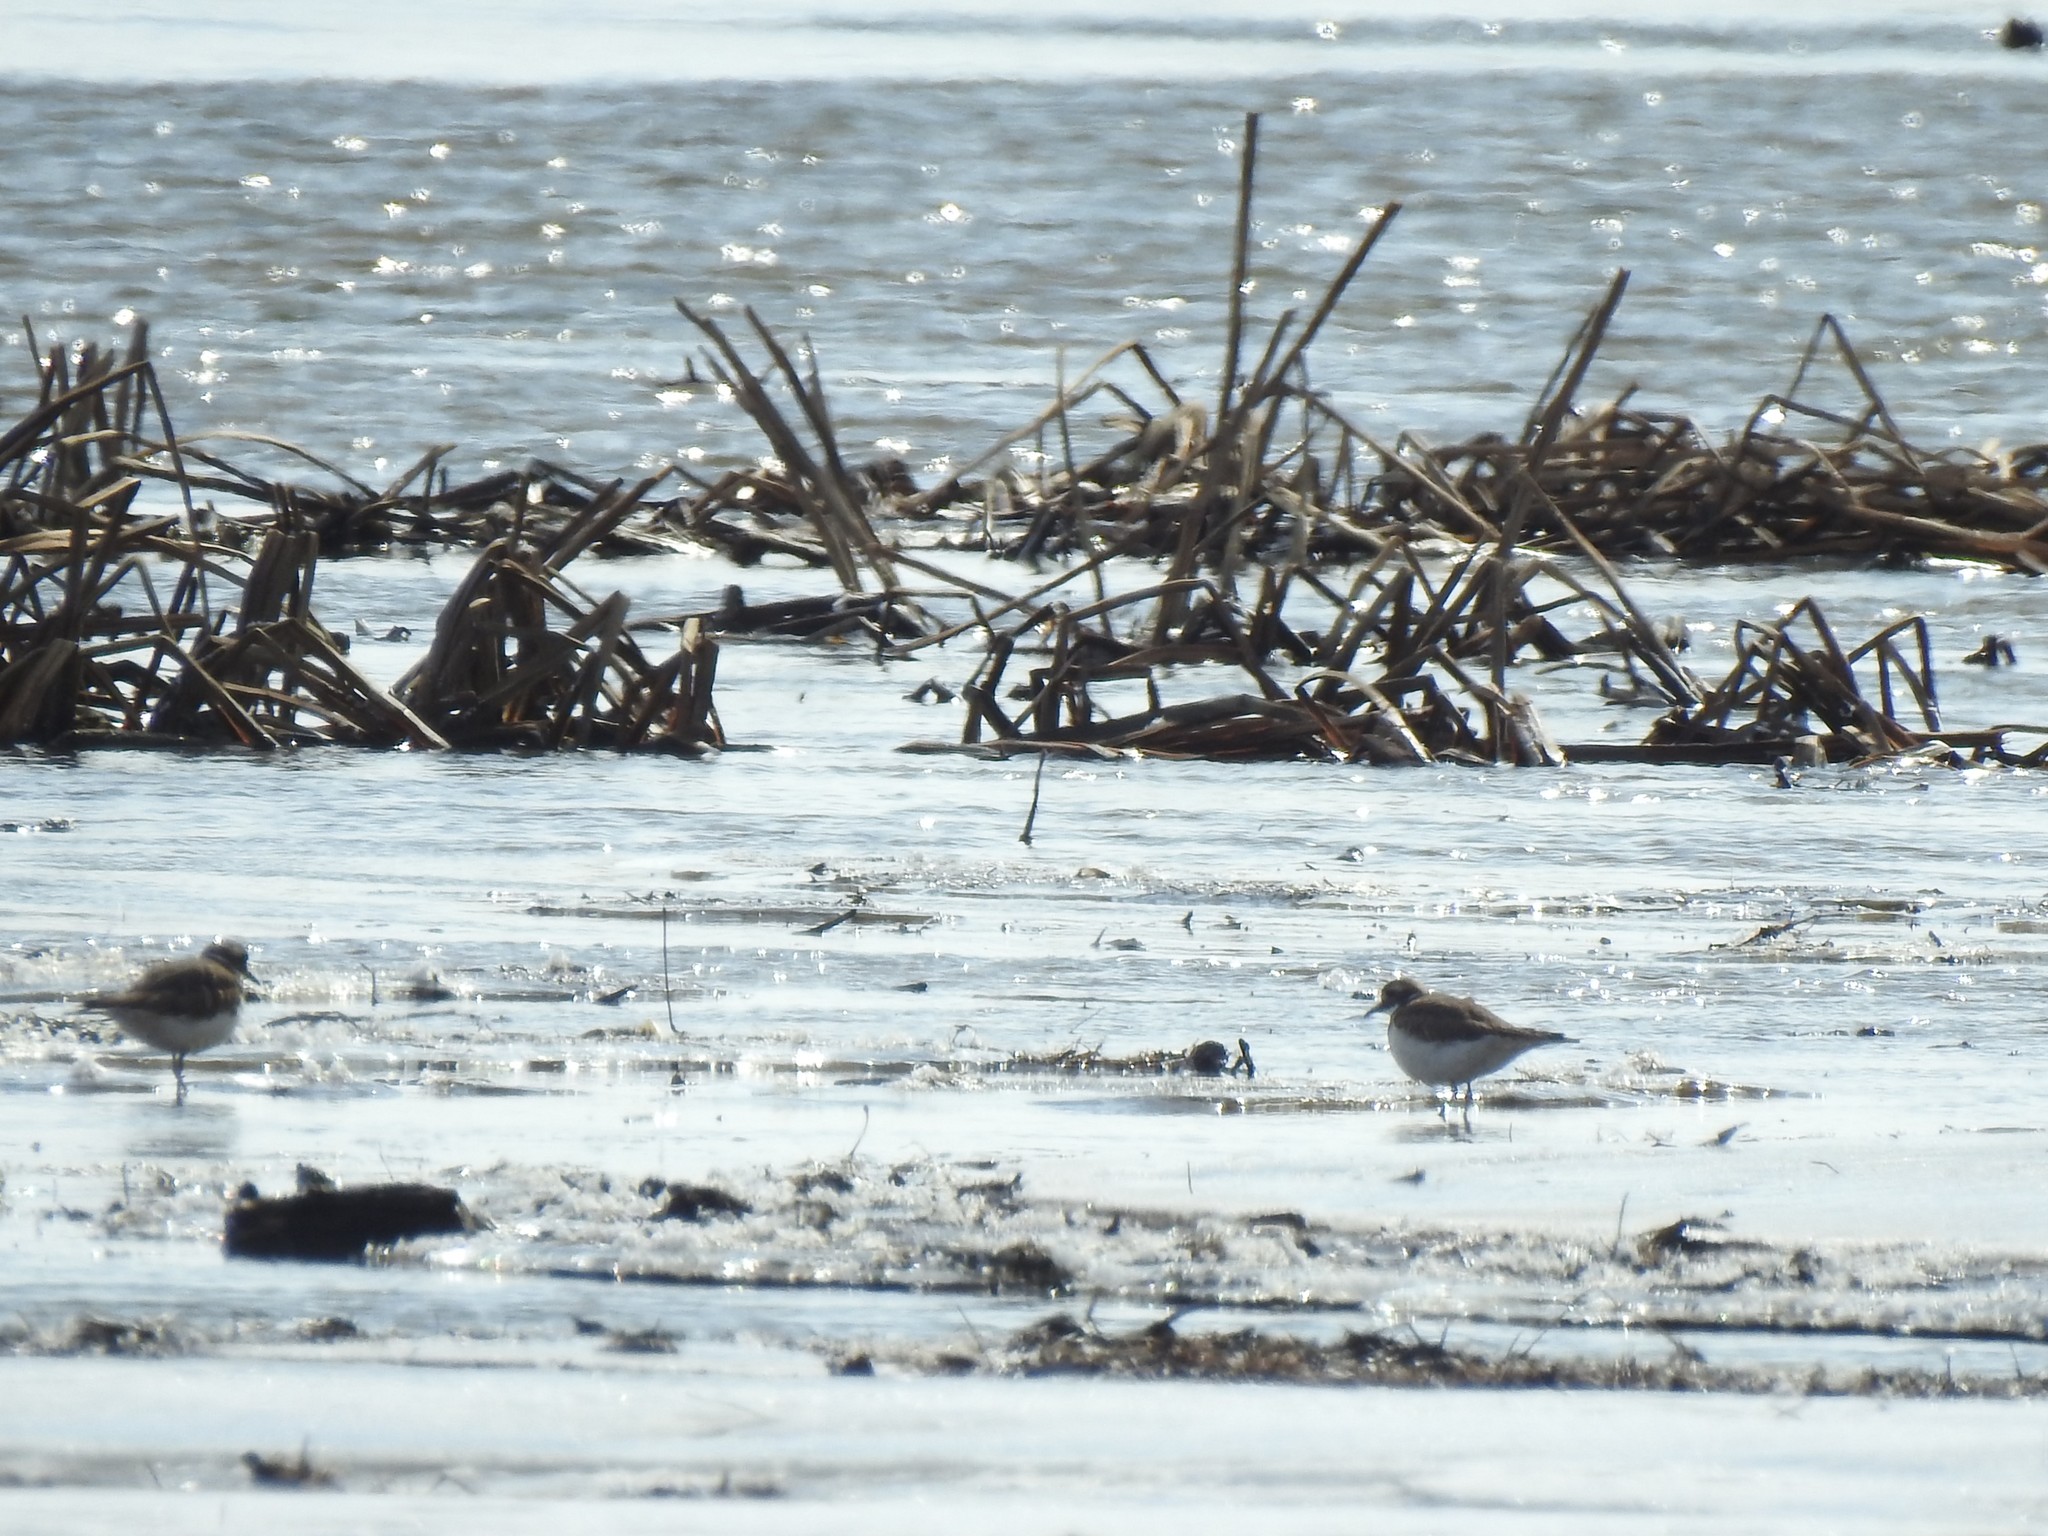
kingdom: Animalia
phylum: Chordata
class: Aves
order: Charadriiformes
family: Charadriidae
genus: Charadrius
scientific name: Charadrius vociferus
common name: Killdeer
